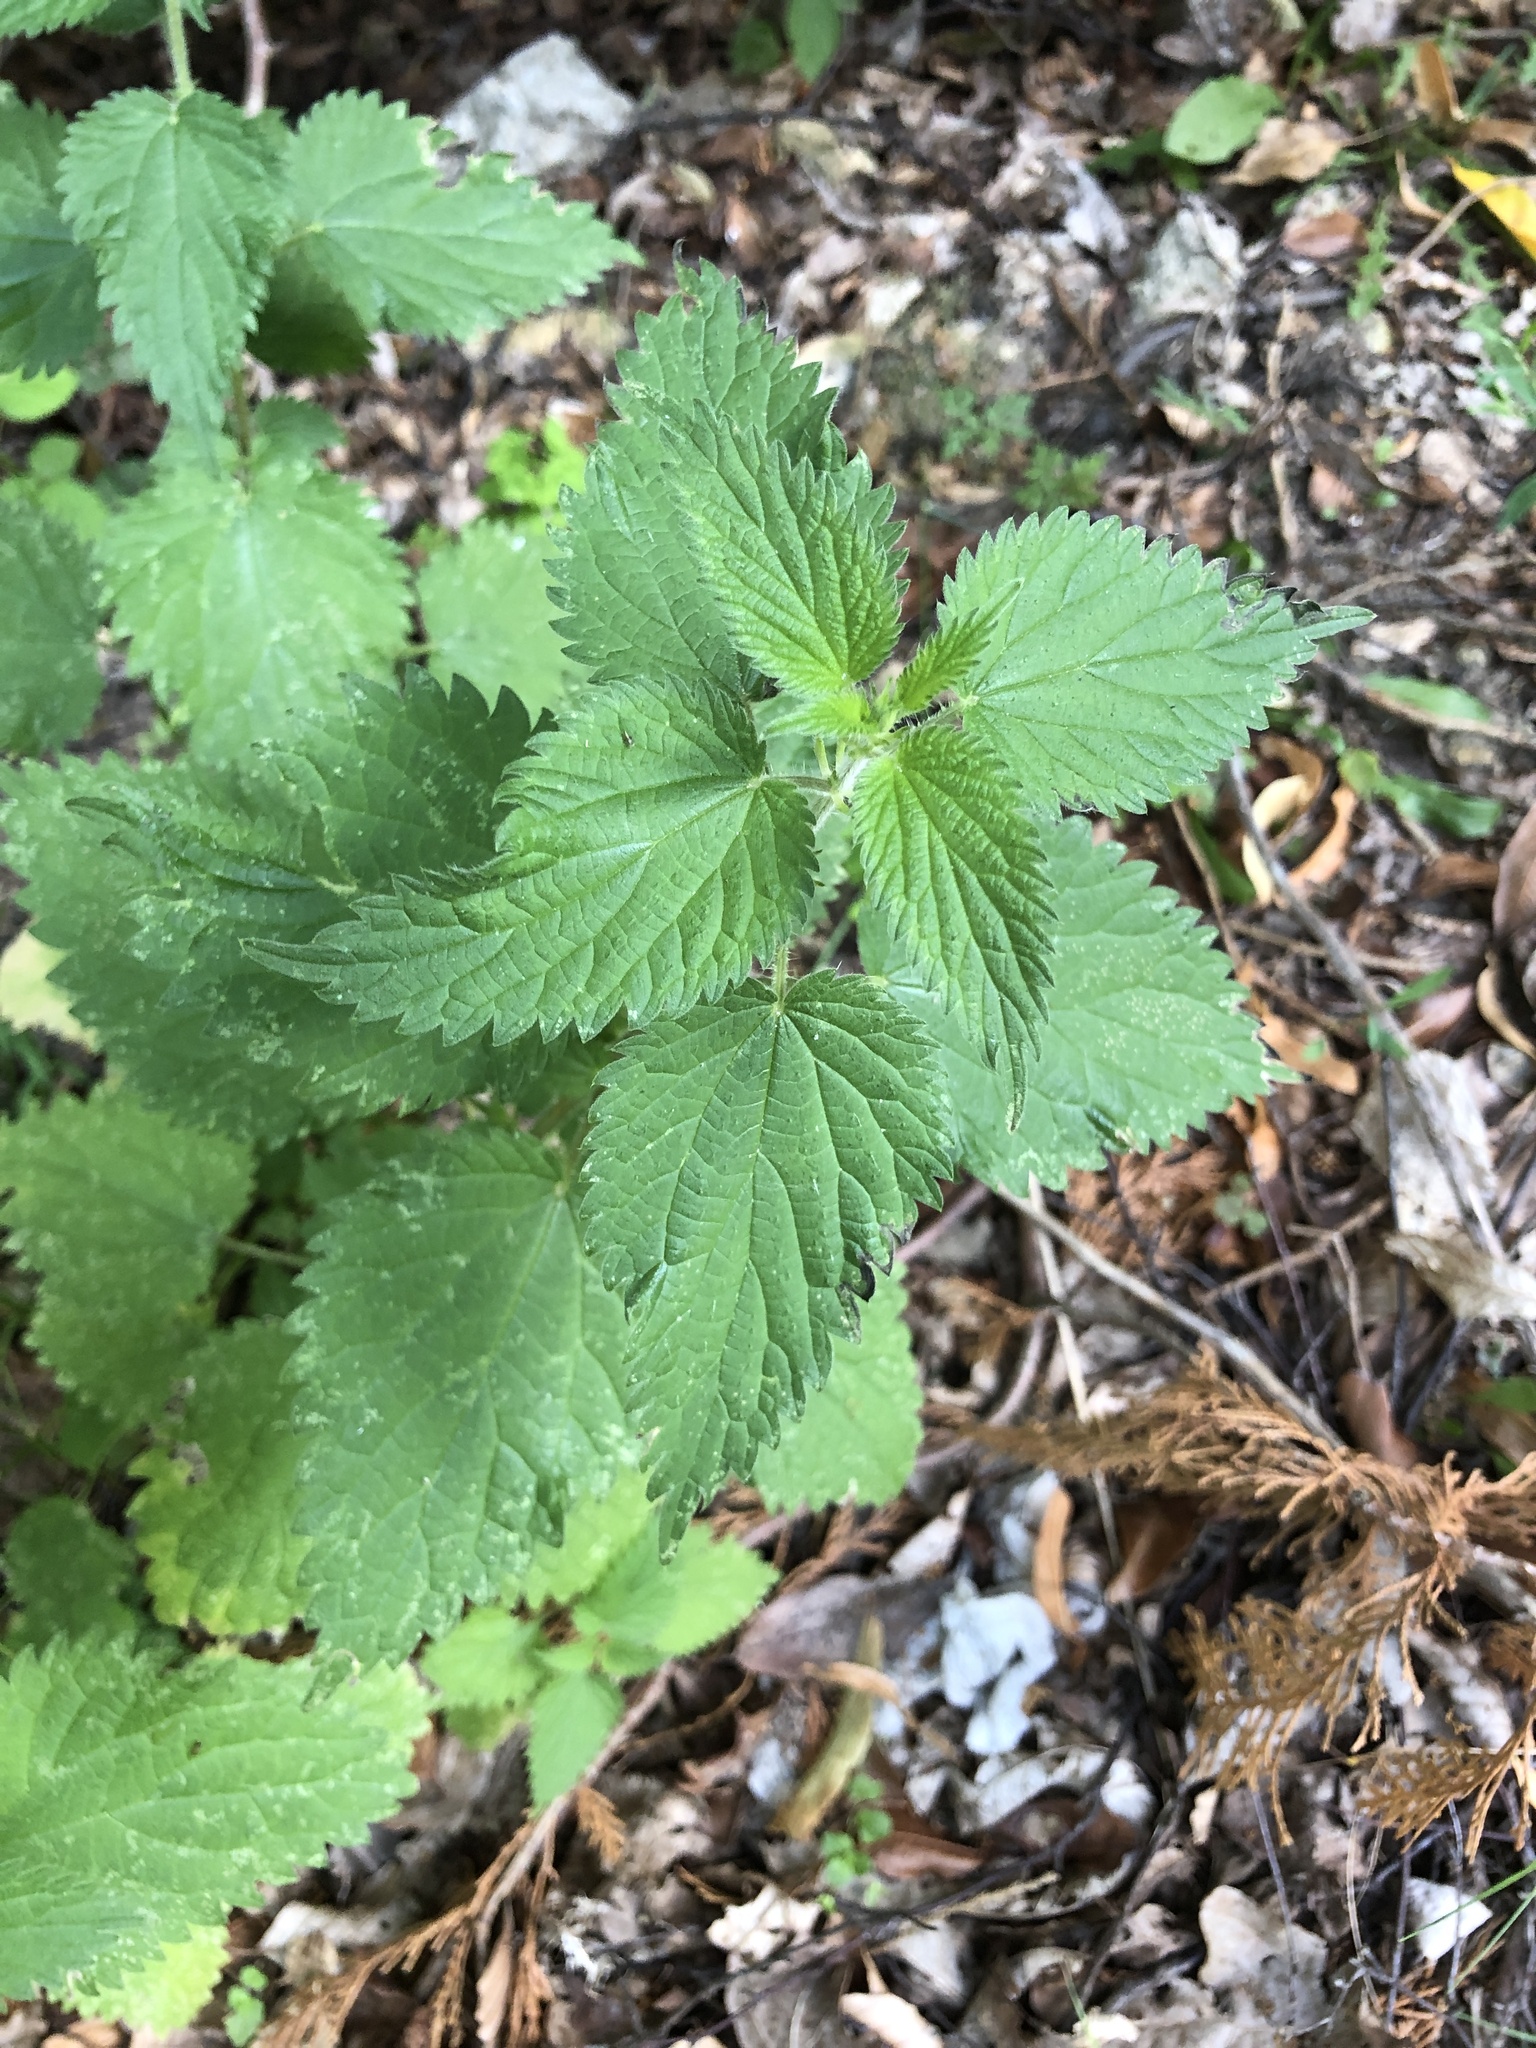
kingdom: Plantae
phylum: Tracheophyta
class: Magnoliopsida
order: Rosales
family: Urticaceae
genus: Urtica
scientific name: Urtica dioica
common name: Common nettle
